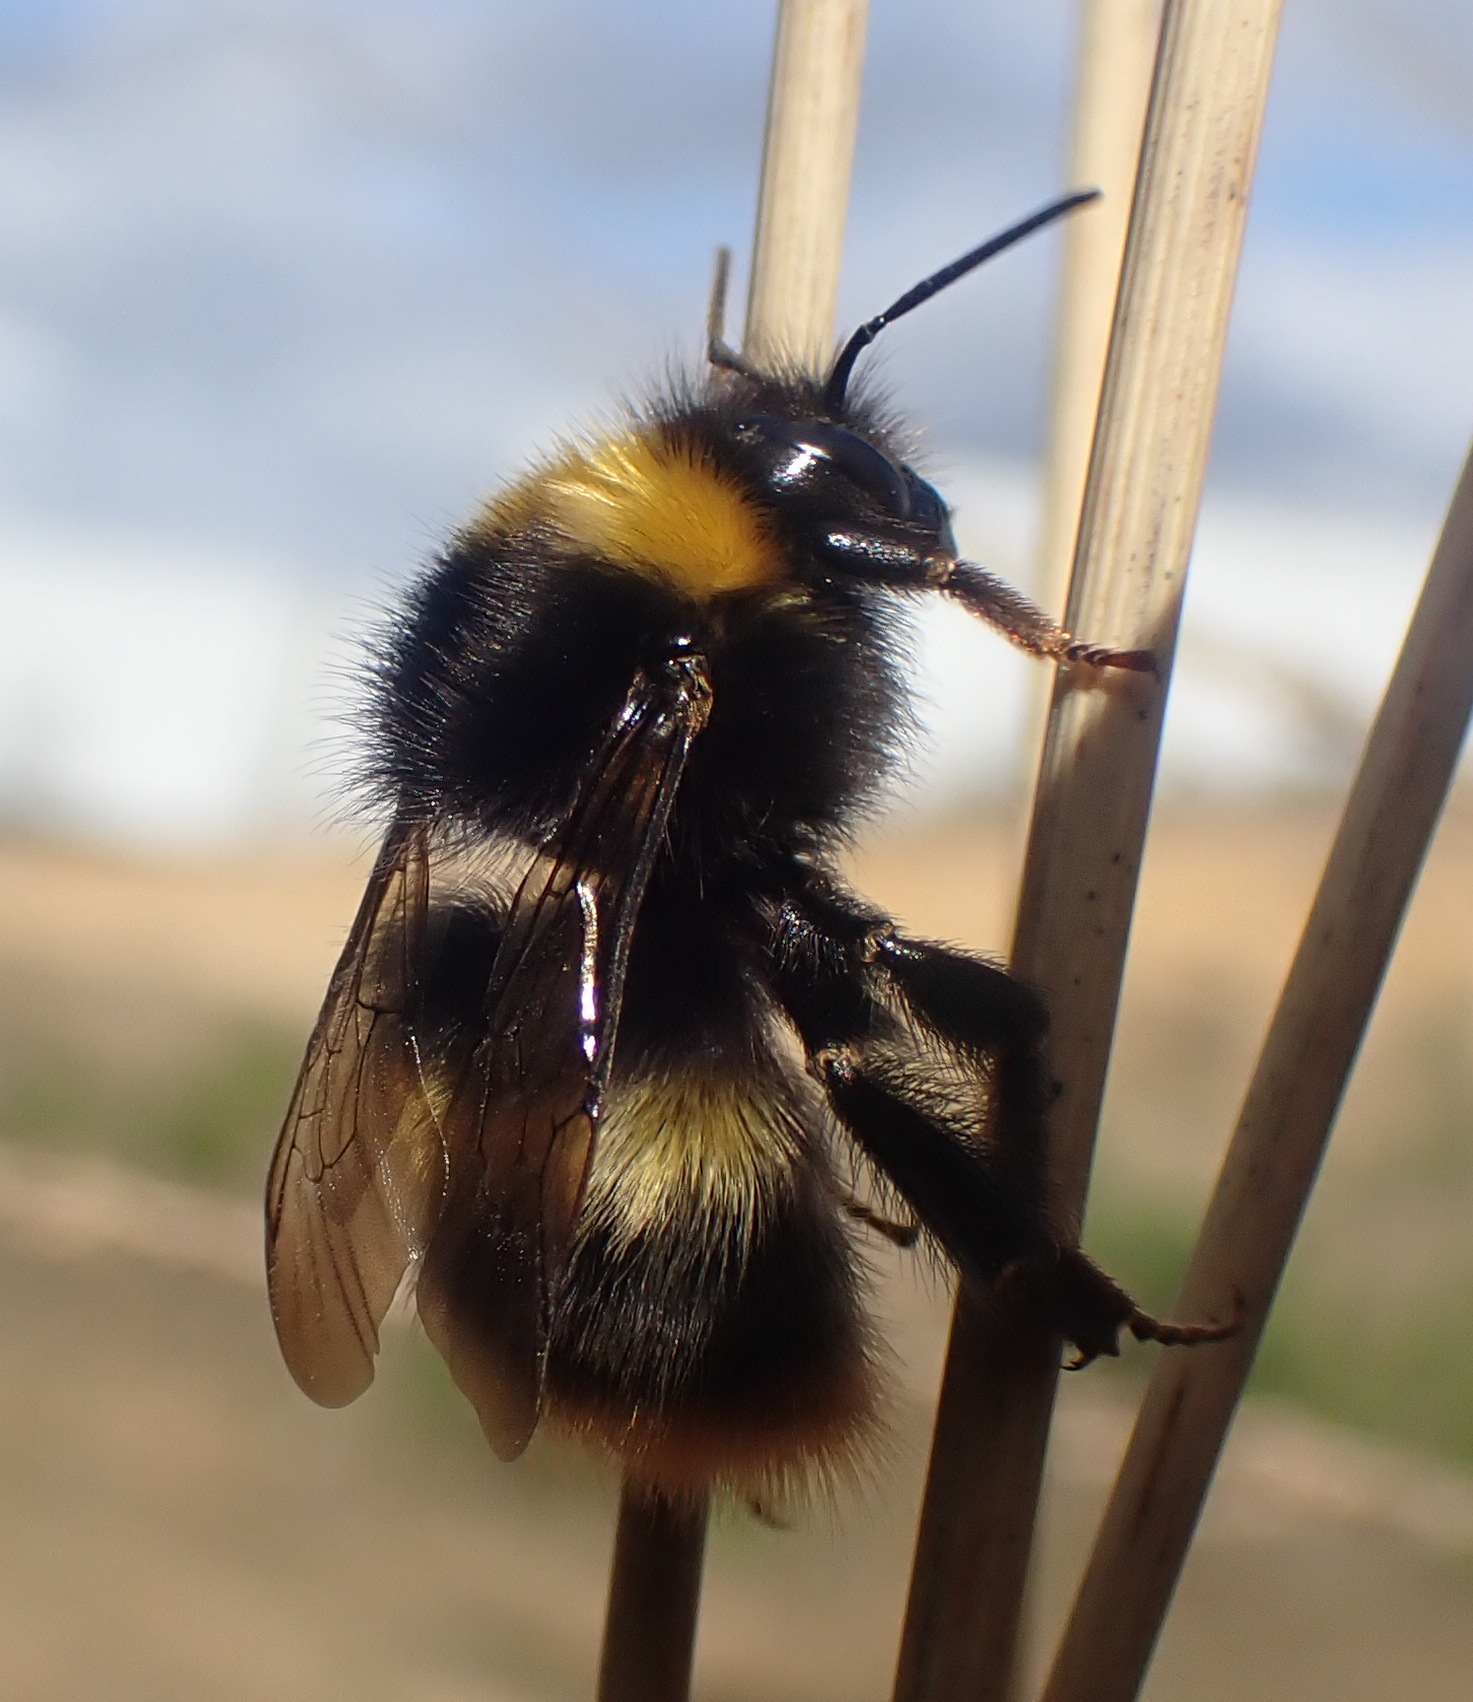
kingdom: Animalia
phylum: Arthropoda
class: Insecta
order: Hymenoptera
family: Apidae
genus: Bombus
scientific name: Bombus pratorum
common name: Early humble-bee
